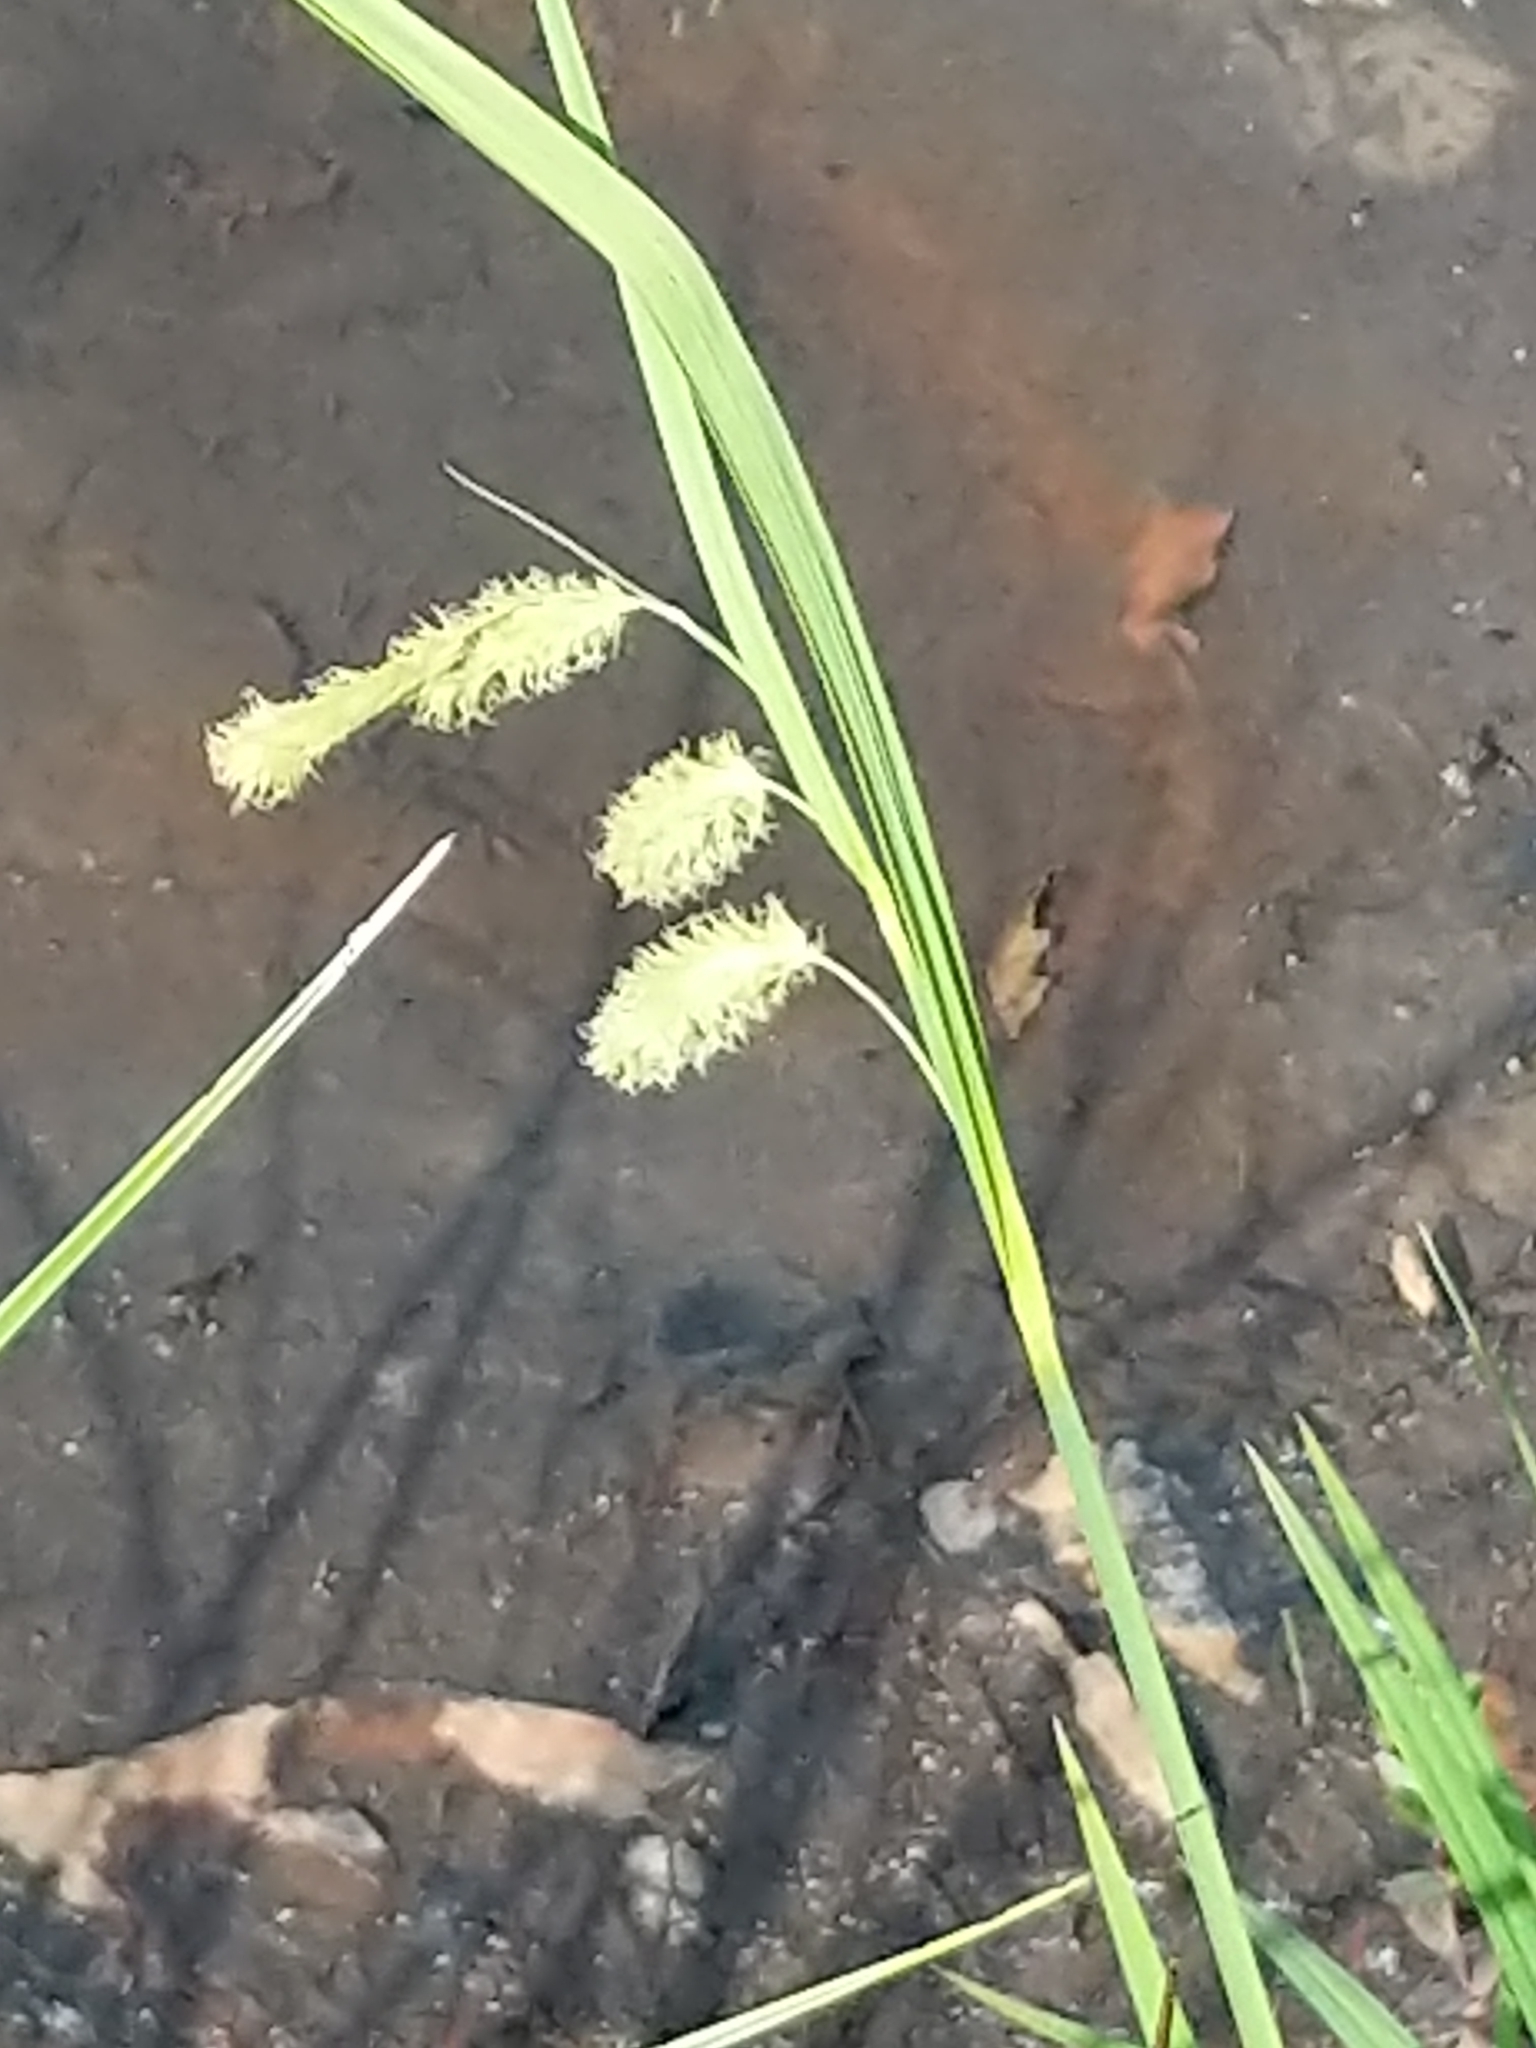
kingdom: Plantae
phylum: Tracheophyta
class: Liliopsida
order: Poales
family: Cyperaceae
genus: Carex
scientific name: Carex
